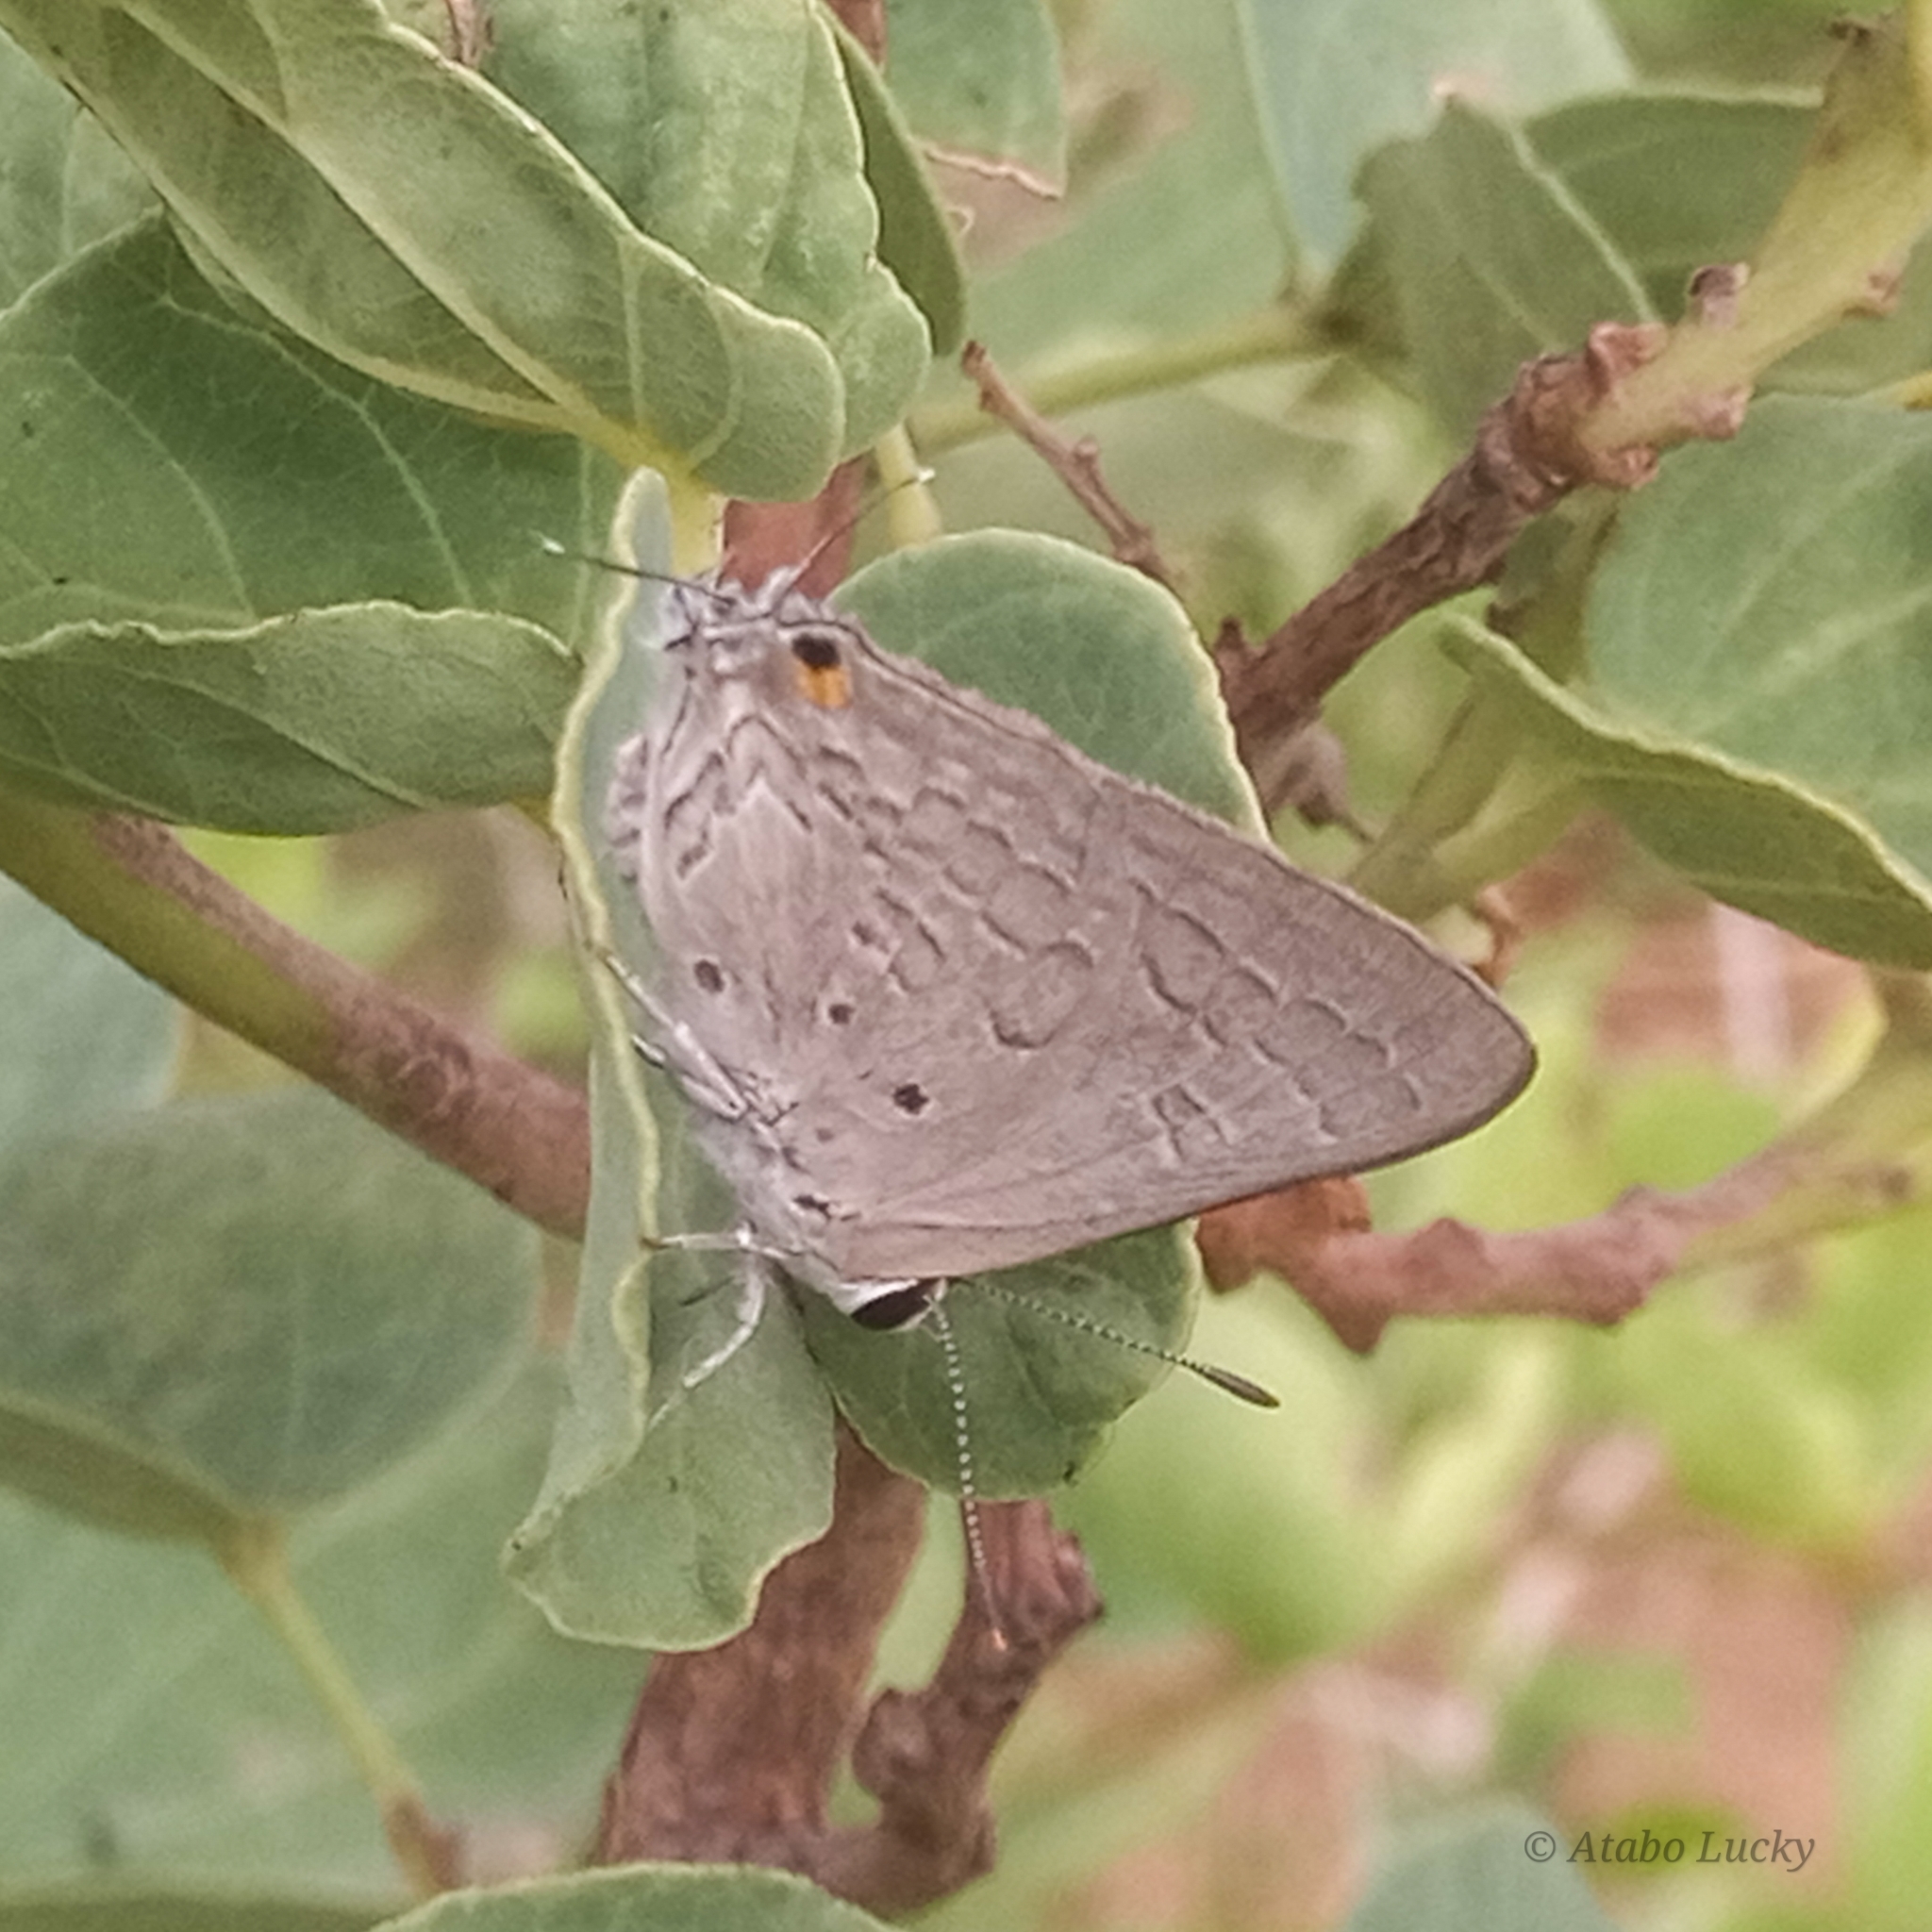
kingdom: Animalia
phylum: Arthropoda
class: Insecta
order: Lepidoptera
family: Lycaenidae
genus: Deudorix
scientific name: Deudorix antalus
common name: Brown playboy
